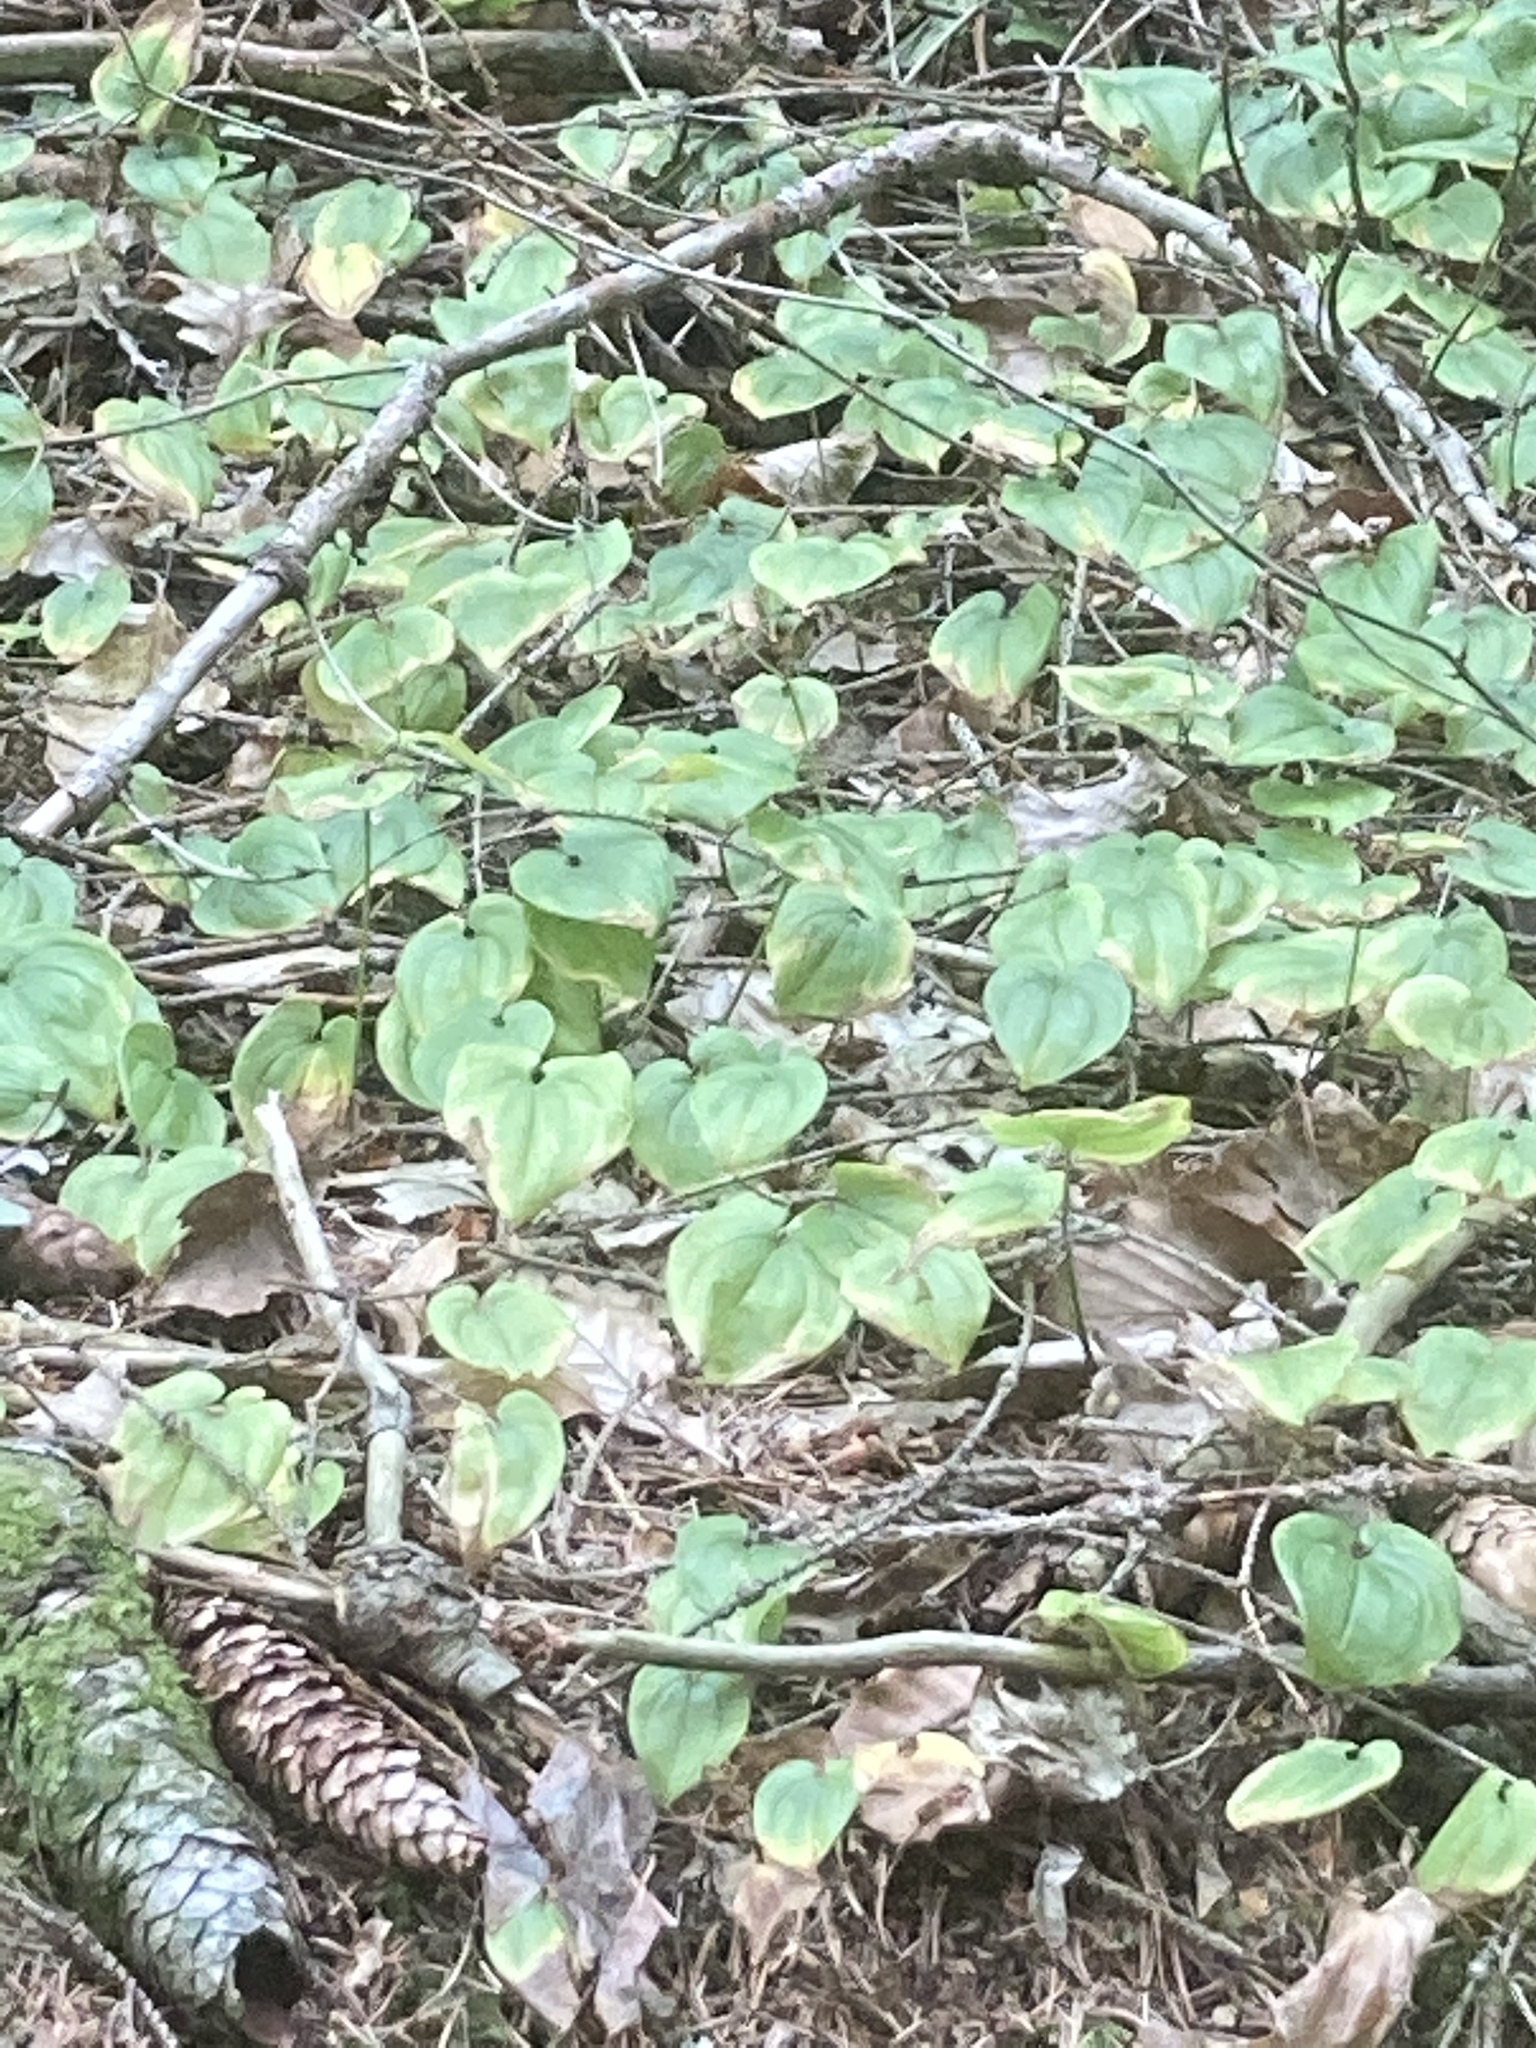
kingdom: Plantae
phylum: Tracheophyta
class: Liliopsida
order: Asparagales
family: Asparagaceae
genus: Maianthemum
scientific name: Maianthemum bifolium
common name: May lily
